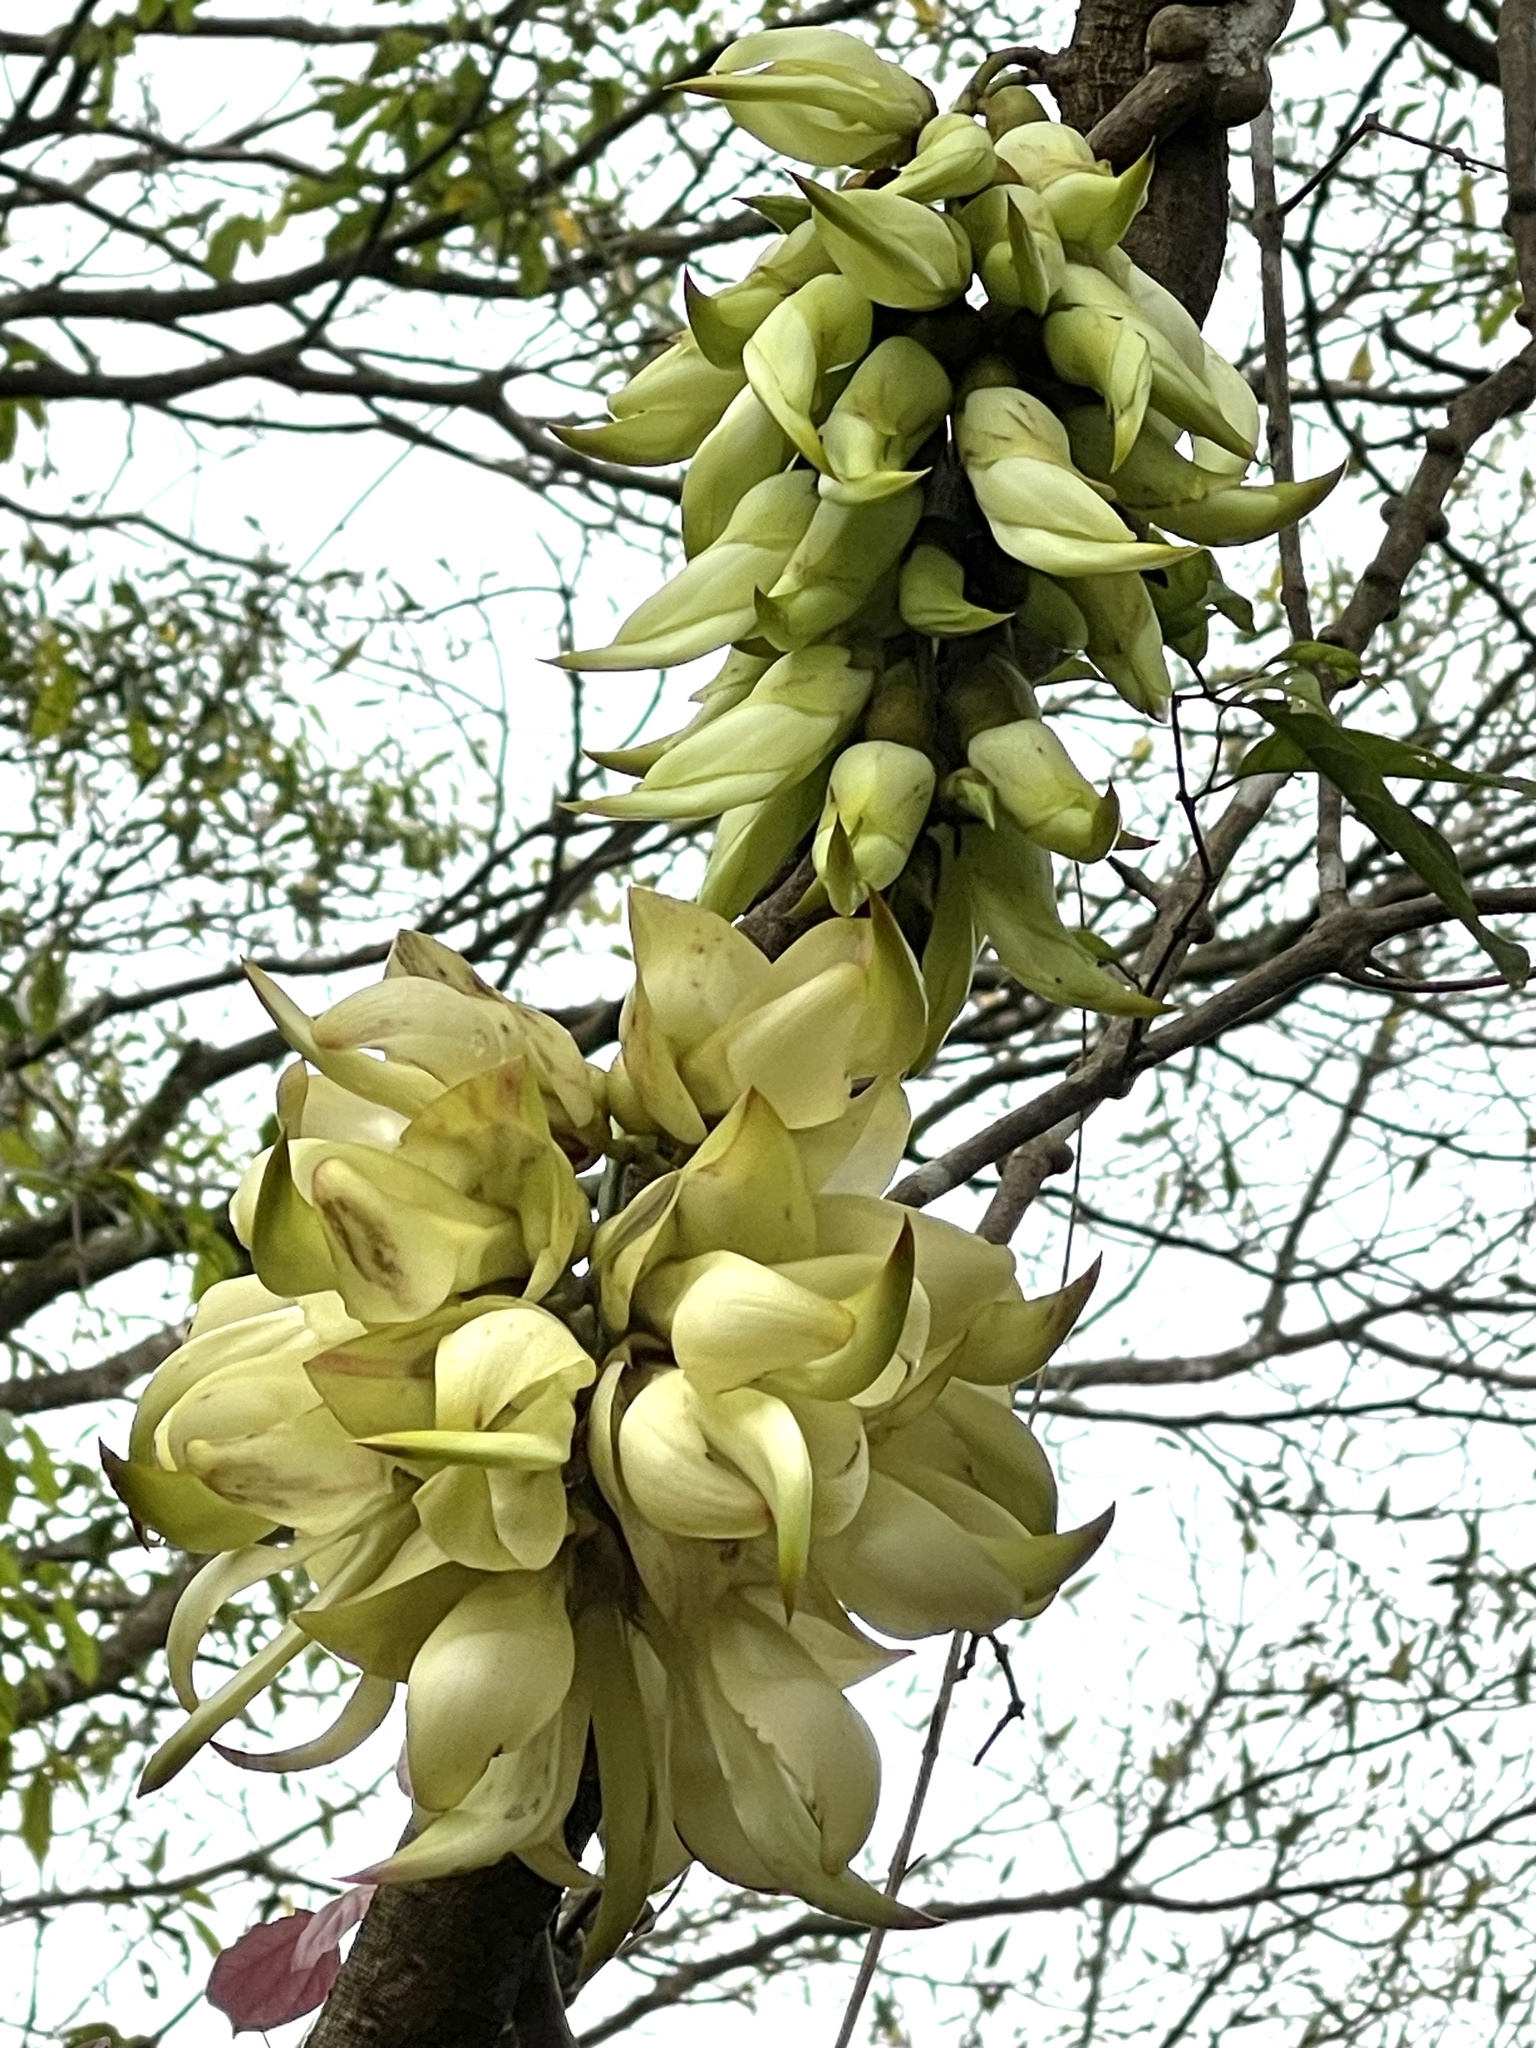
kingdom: Plantae
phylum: Tracheophyta
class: Magnoliopsida
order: Fabales
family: Fabaceae
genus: Mucuna
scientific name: Mucuna birdwoodiana
